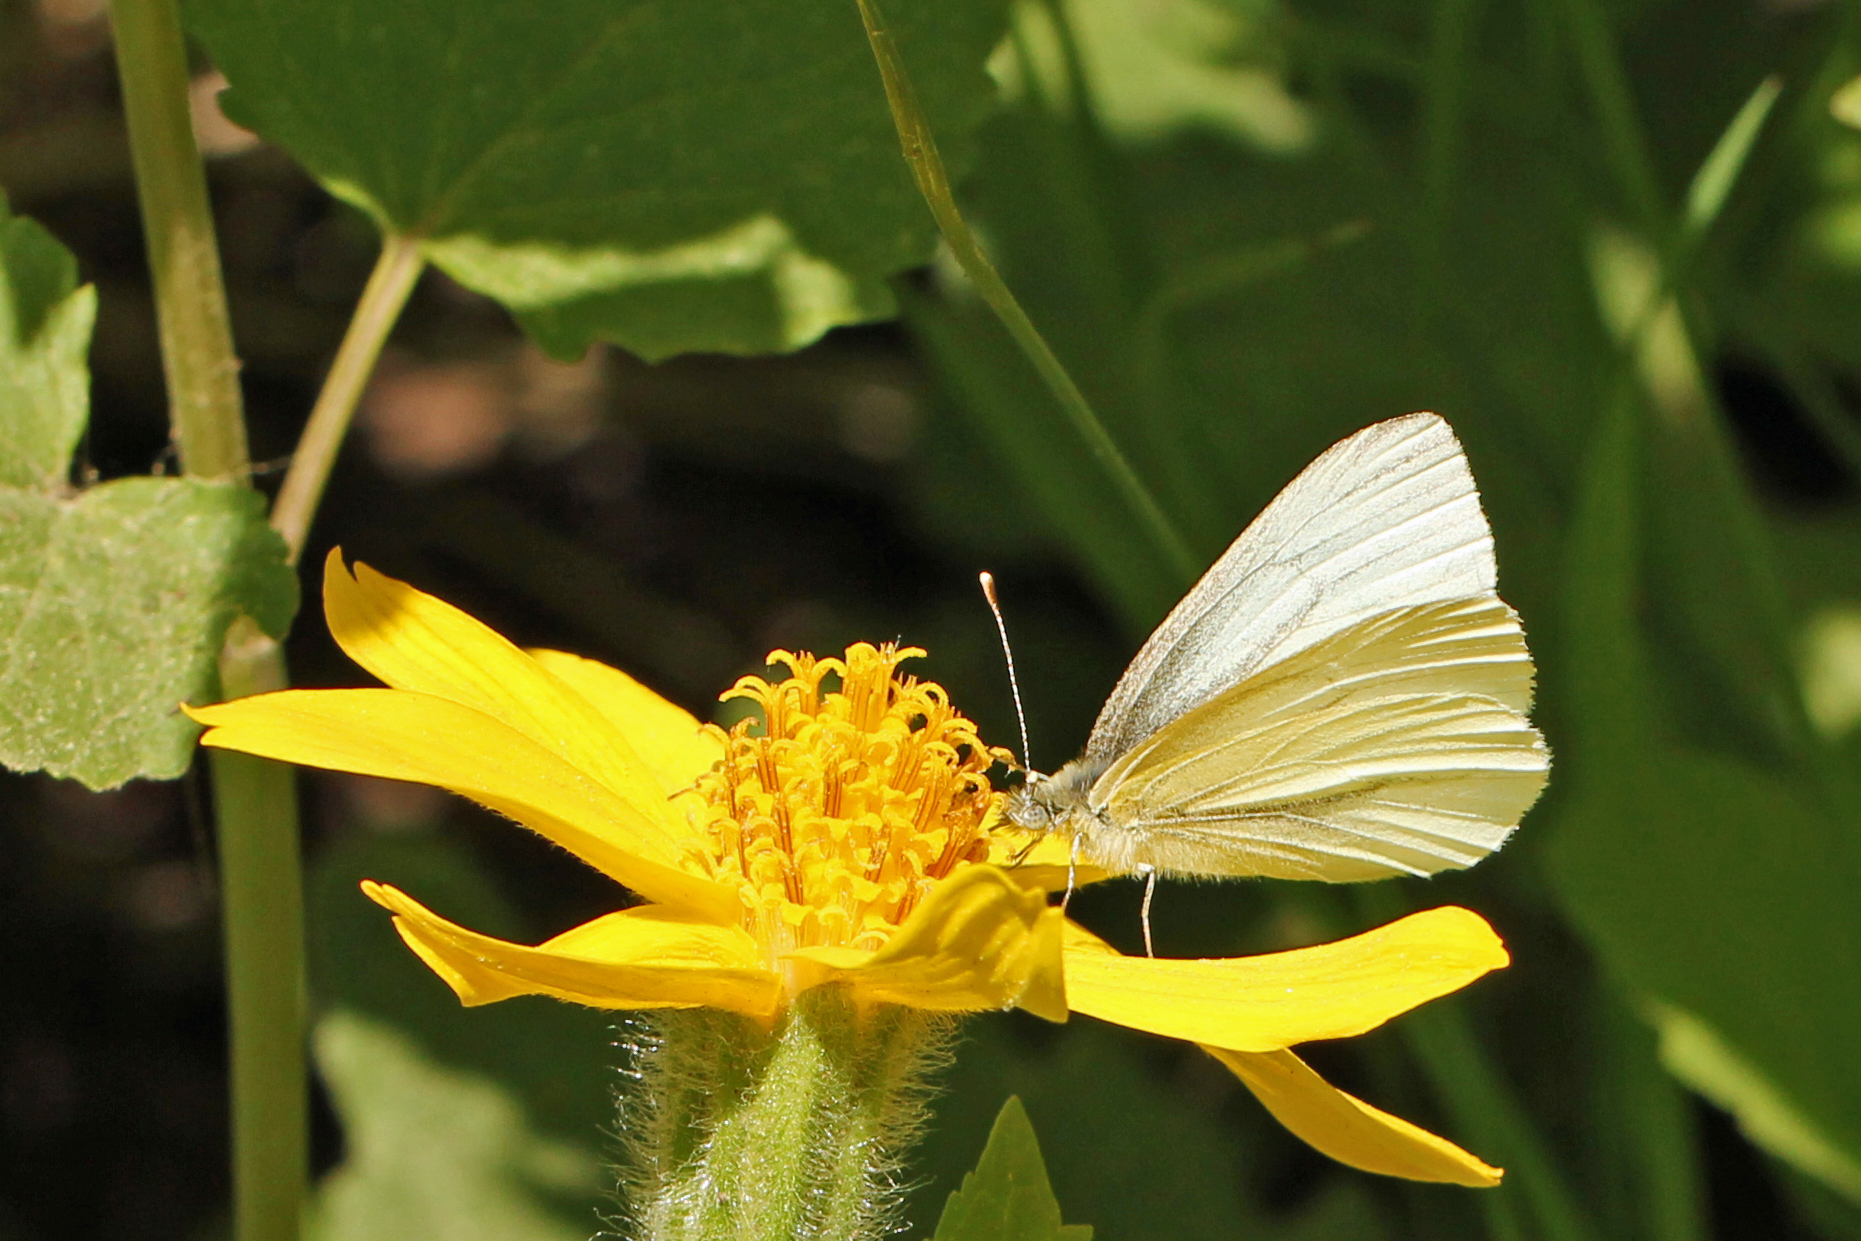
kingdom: Animalia
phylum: Arthropoda
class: Insecta
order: Lepidoptera
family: Pieridae
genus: Pieris
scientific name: Pieris marginalis
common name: Margined white
